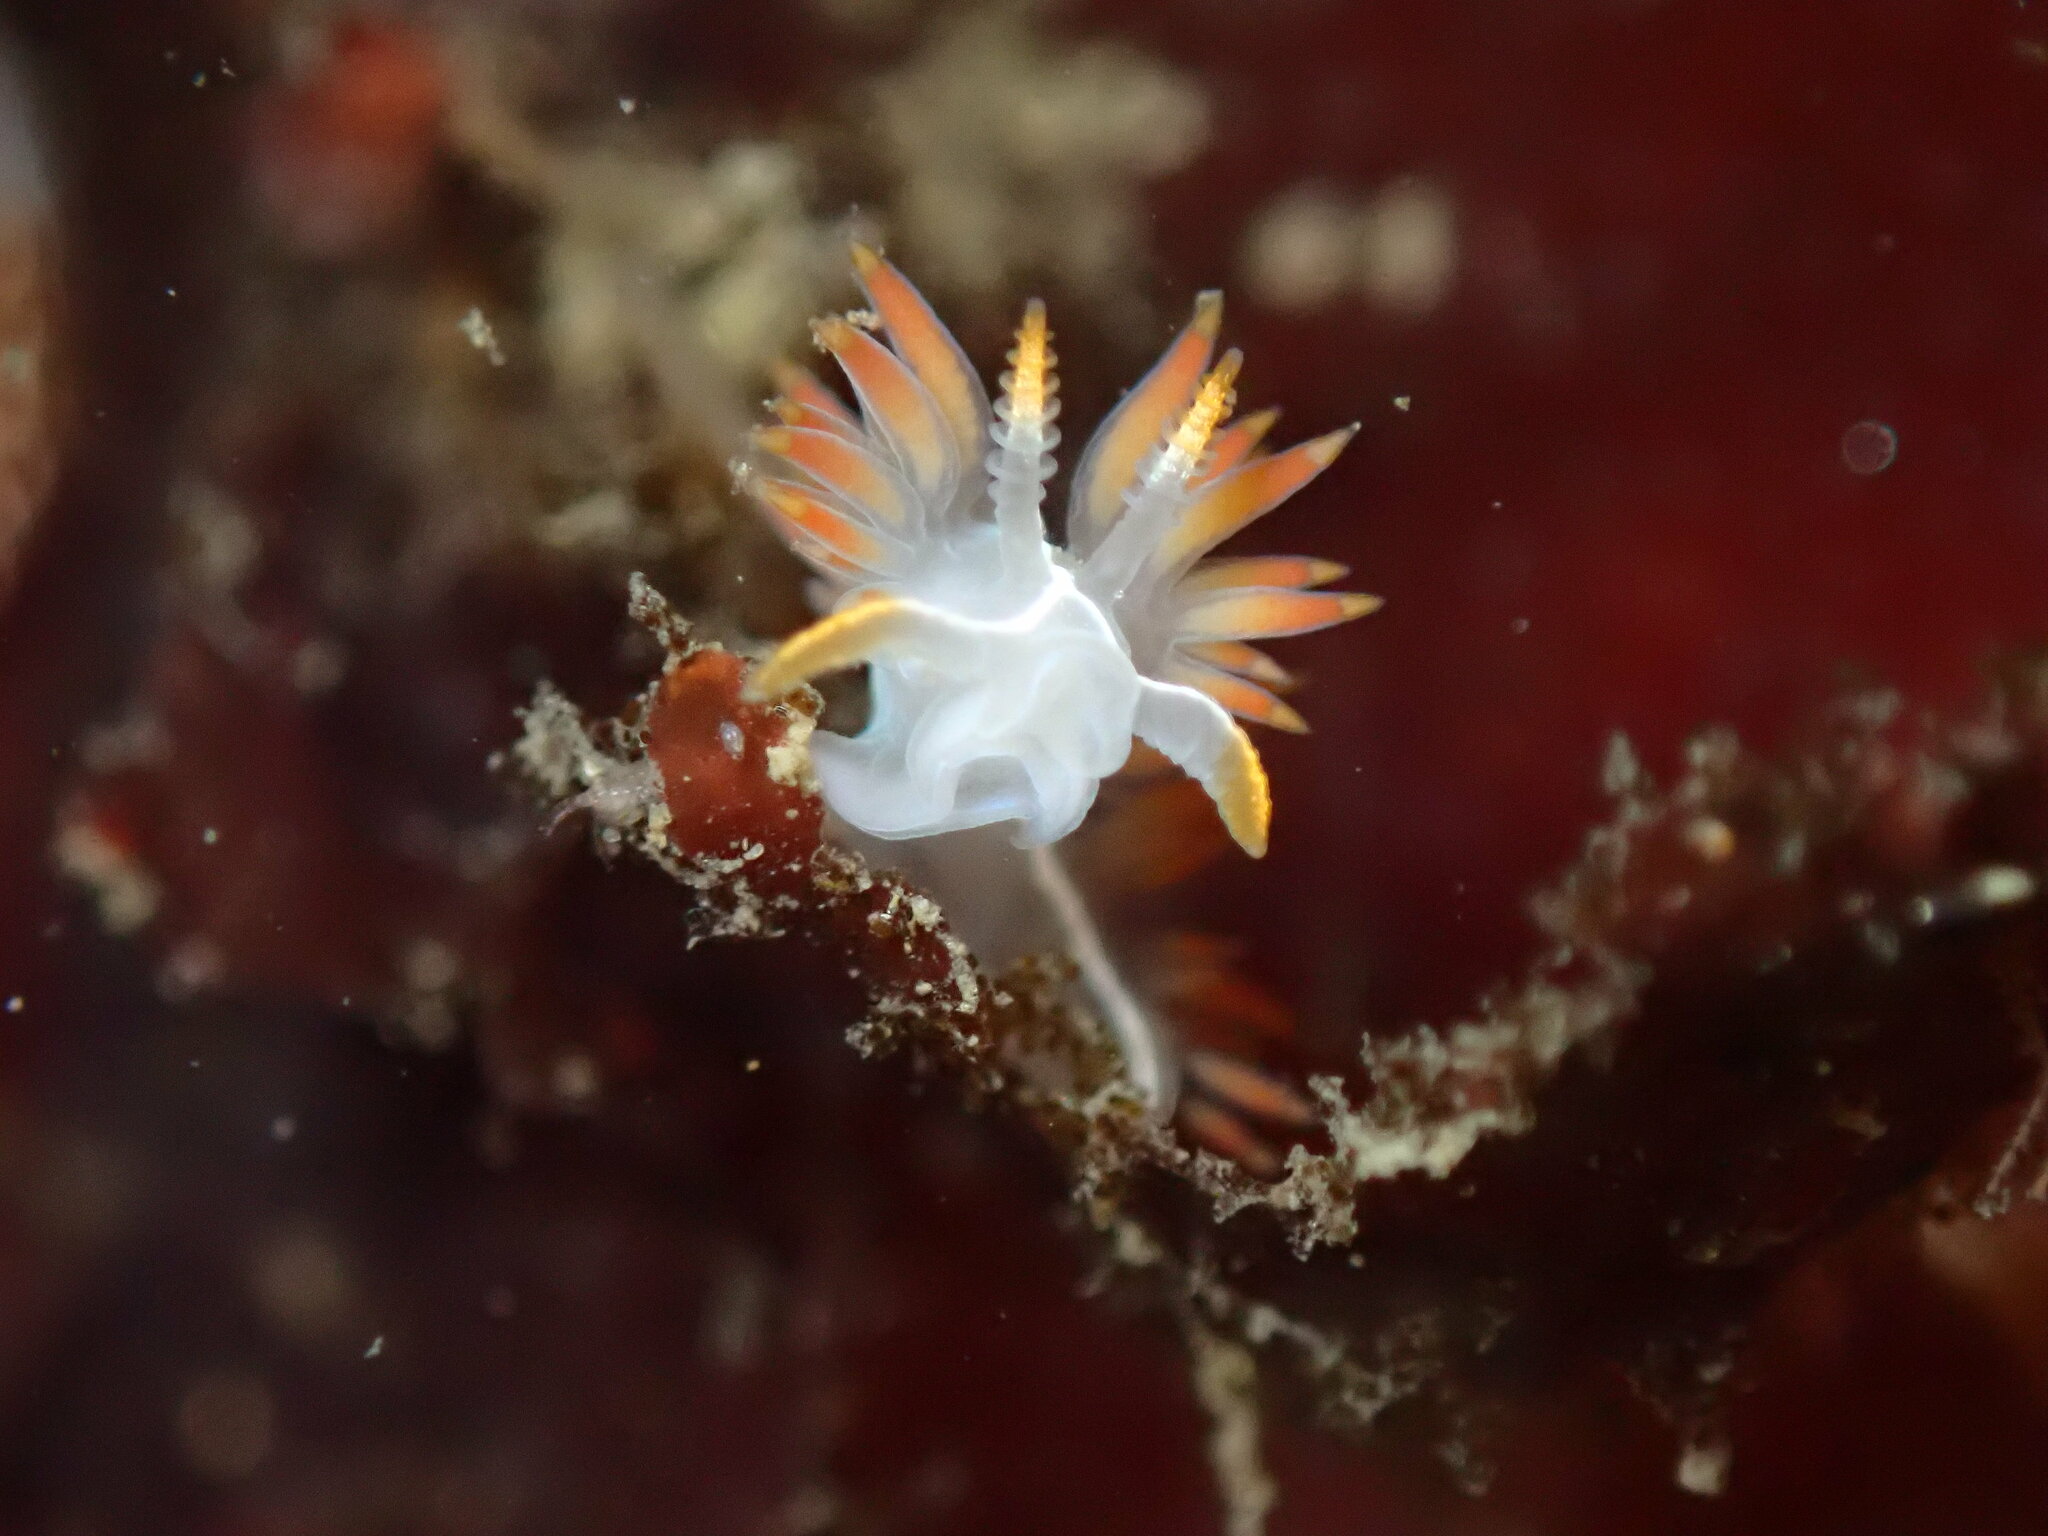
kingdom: Animalia
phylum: Mollusca
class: Gastropoda
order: Nudibranchia
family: Coryphellidae
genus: Coryphella
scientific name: Coryphella trilineata
